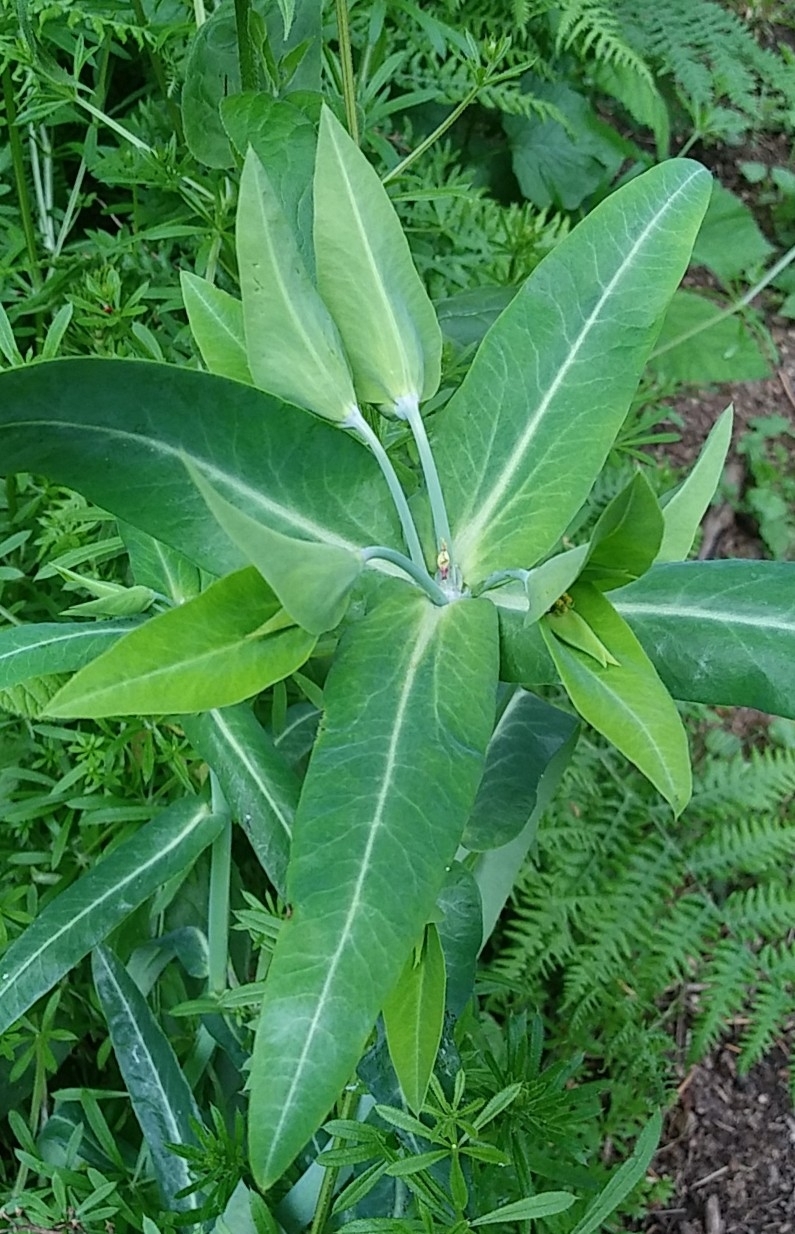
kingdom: Plantae
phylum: Tracheophyta
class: Magnoliopsida
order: Malpighiales
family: Euphorbiaceae
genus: Euphorbia
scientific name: Euphorbia lathyris
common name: Caper spurge
